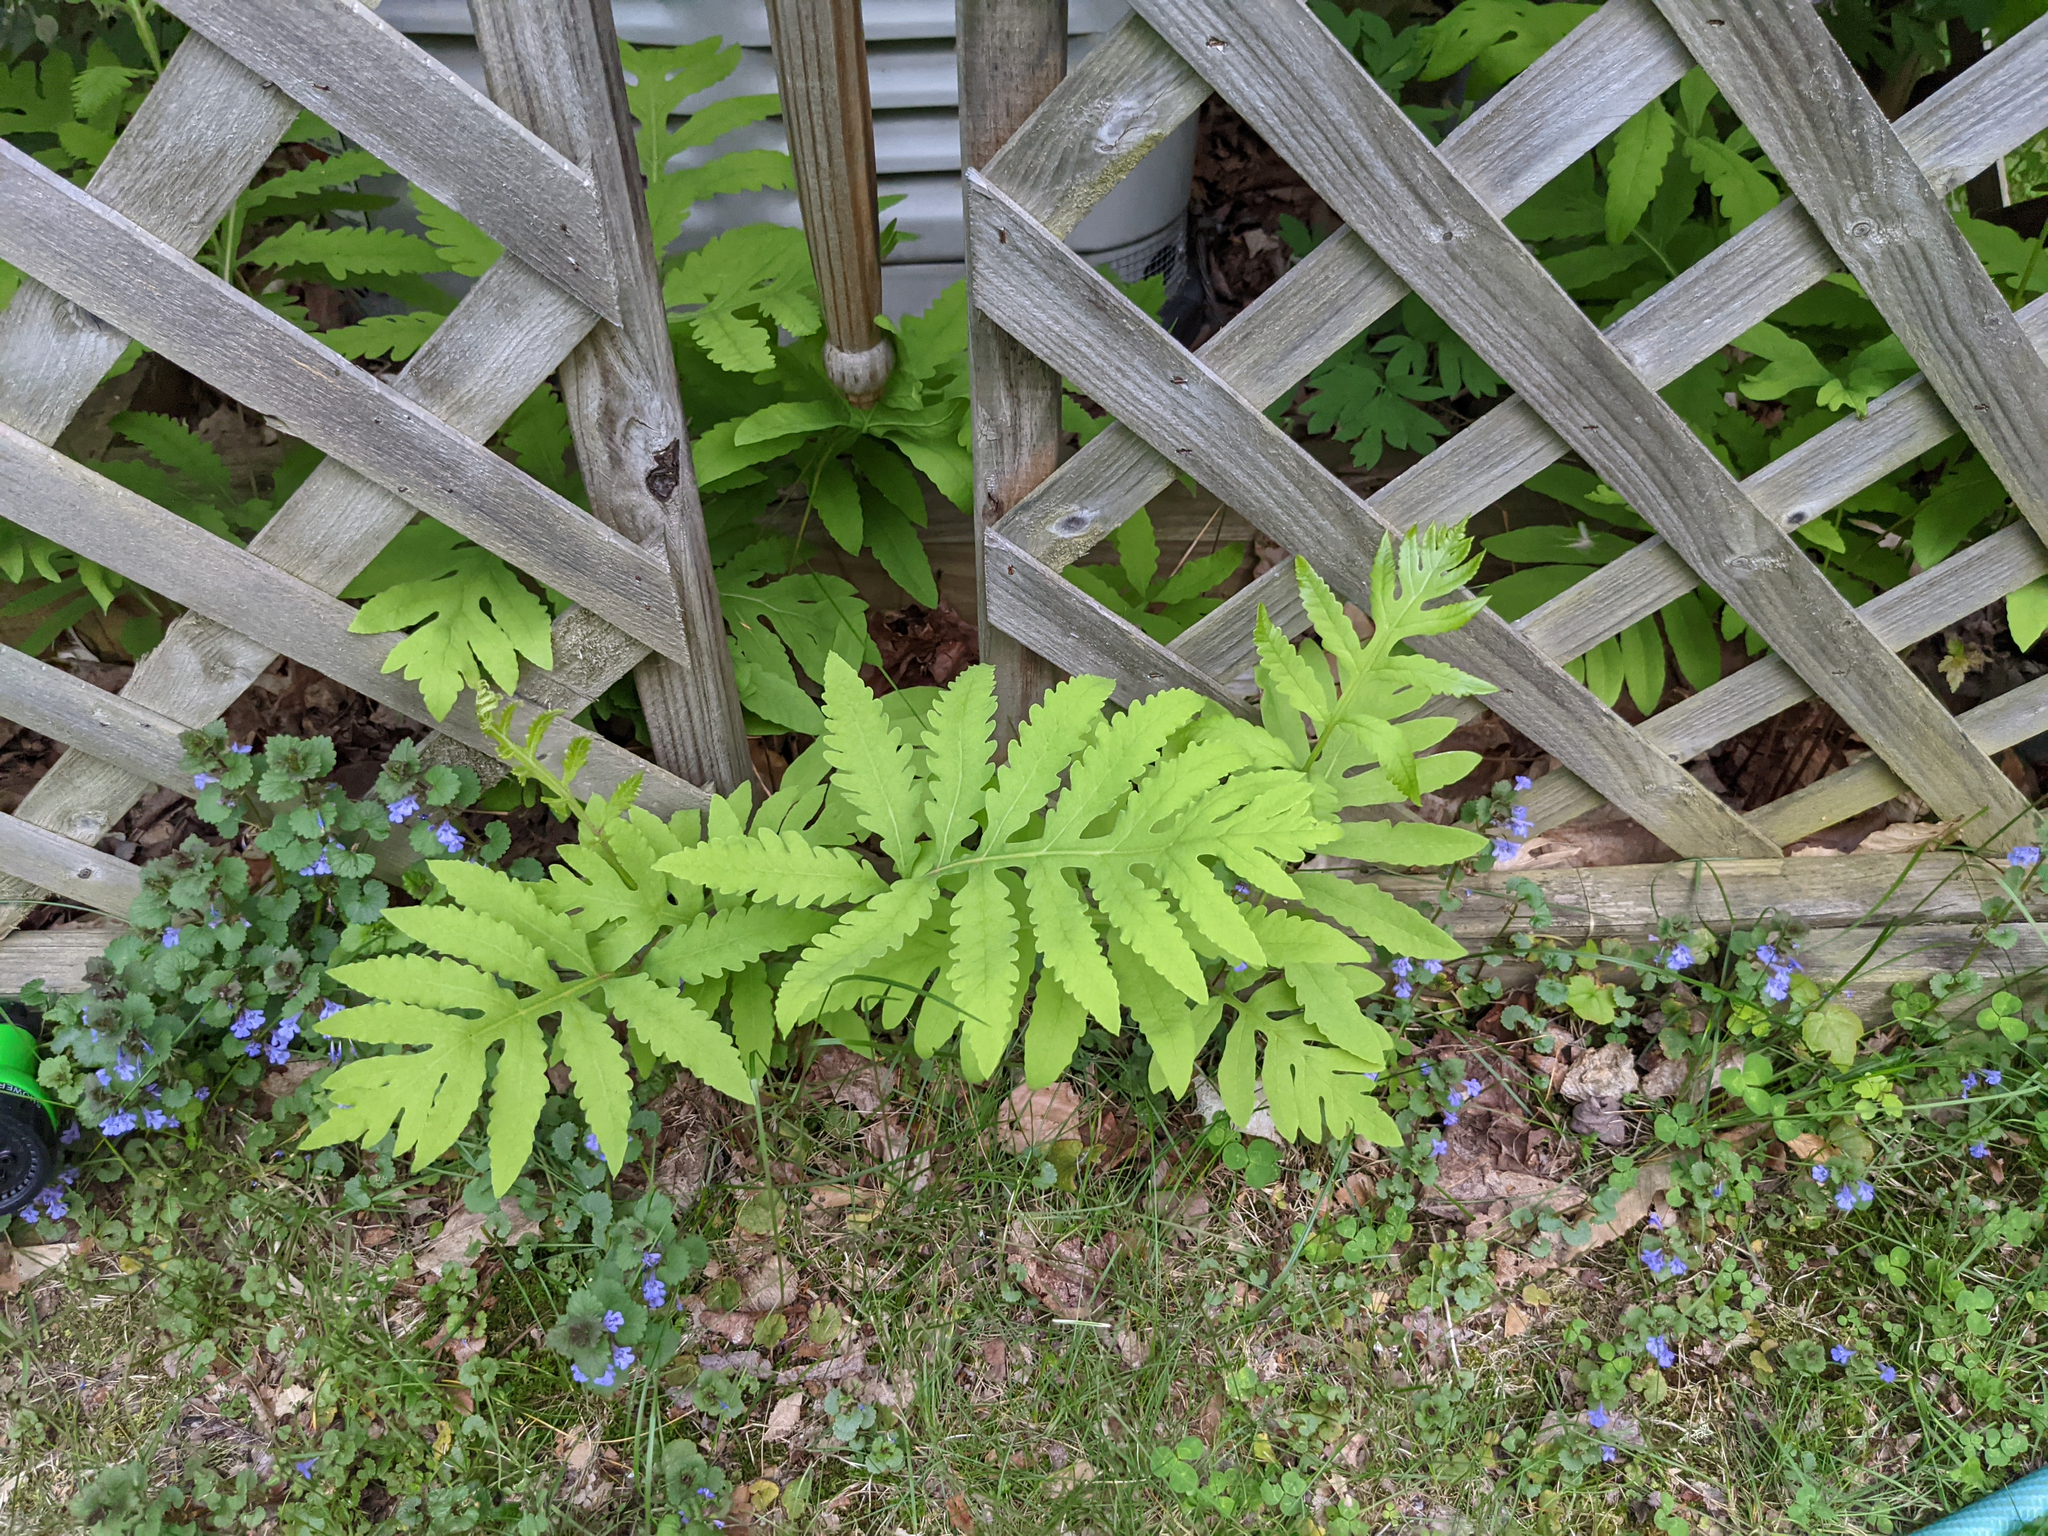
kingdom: Plantae
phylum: Tracheophyta
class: Polypodiopsida
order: Polypodiales
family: Onocleaceae
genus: Onoclea
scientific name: Onoclea sensibilis
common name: Sensitive fern
